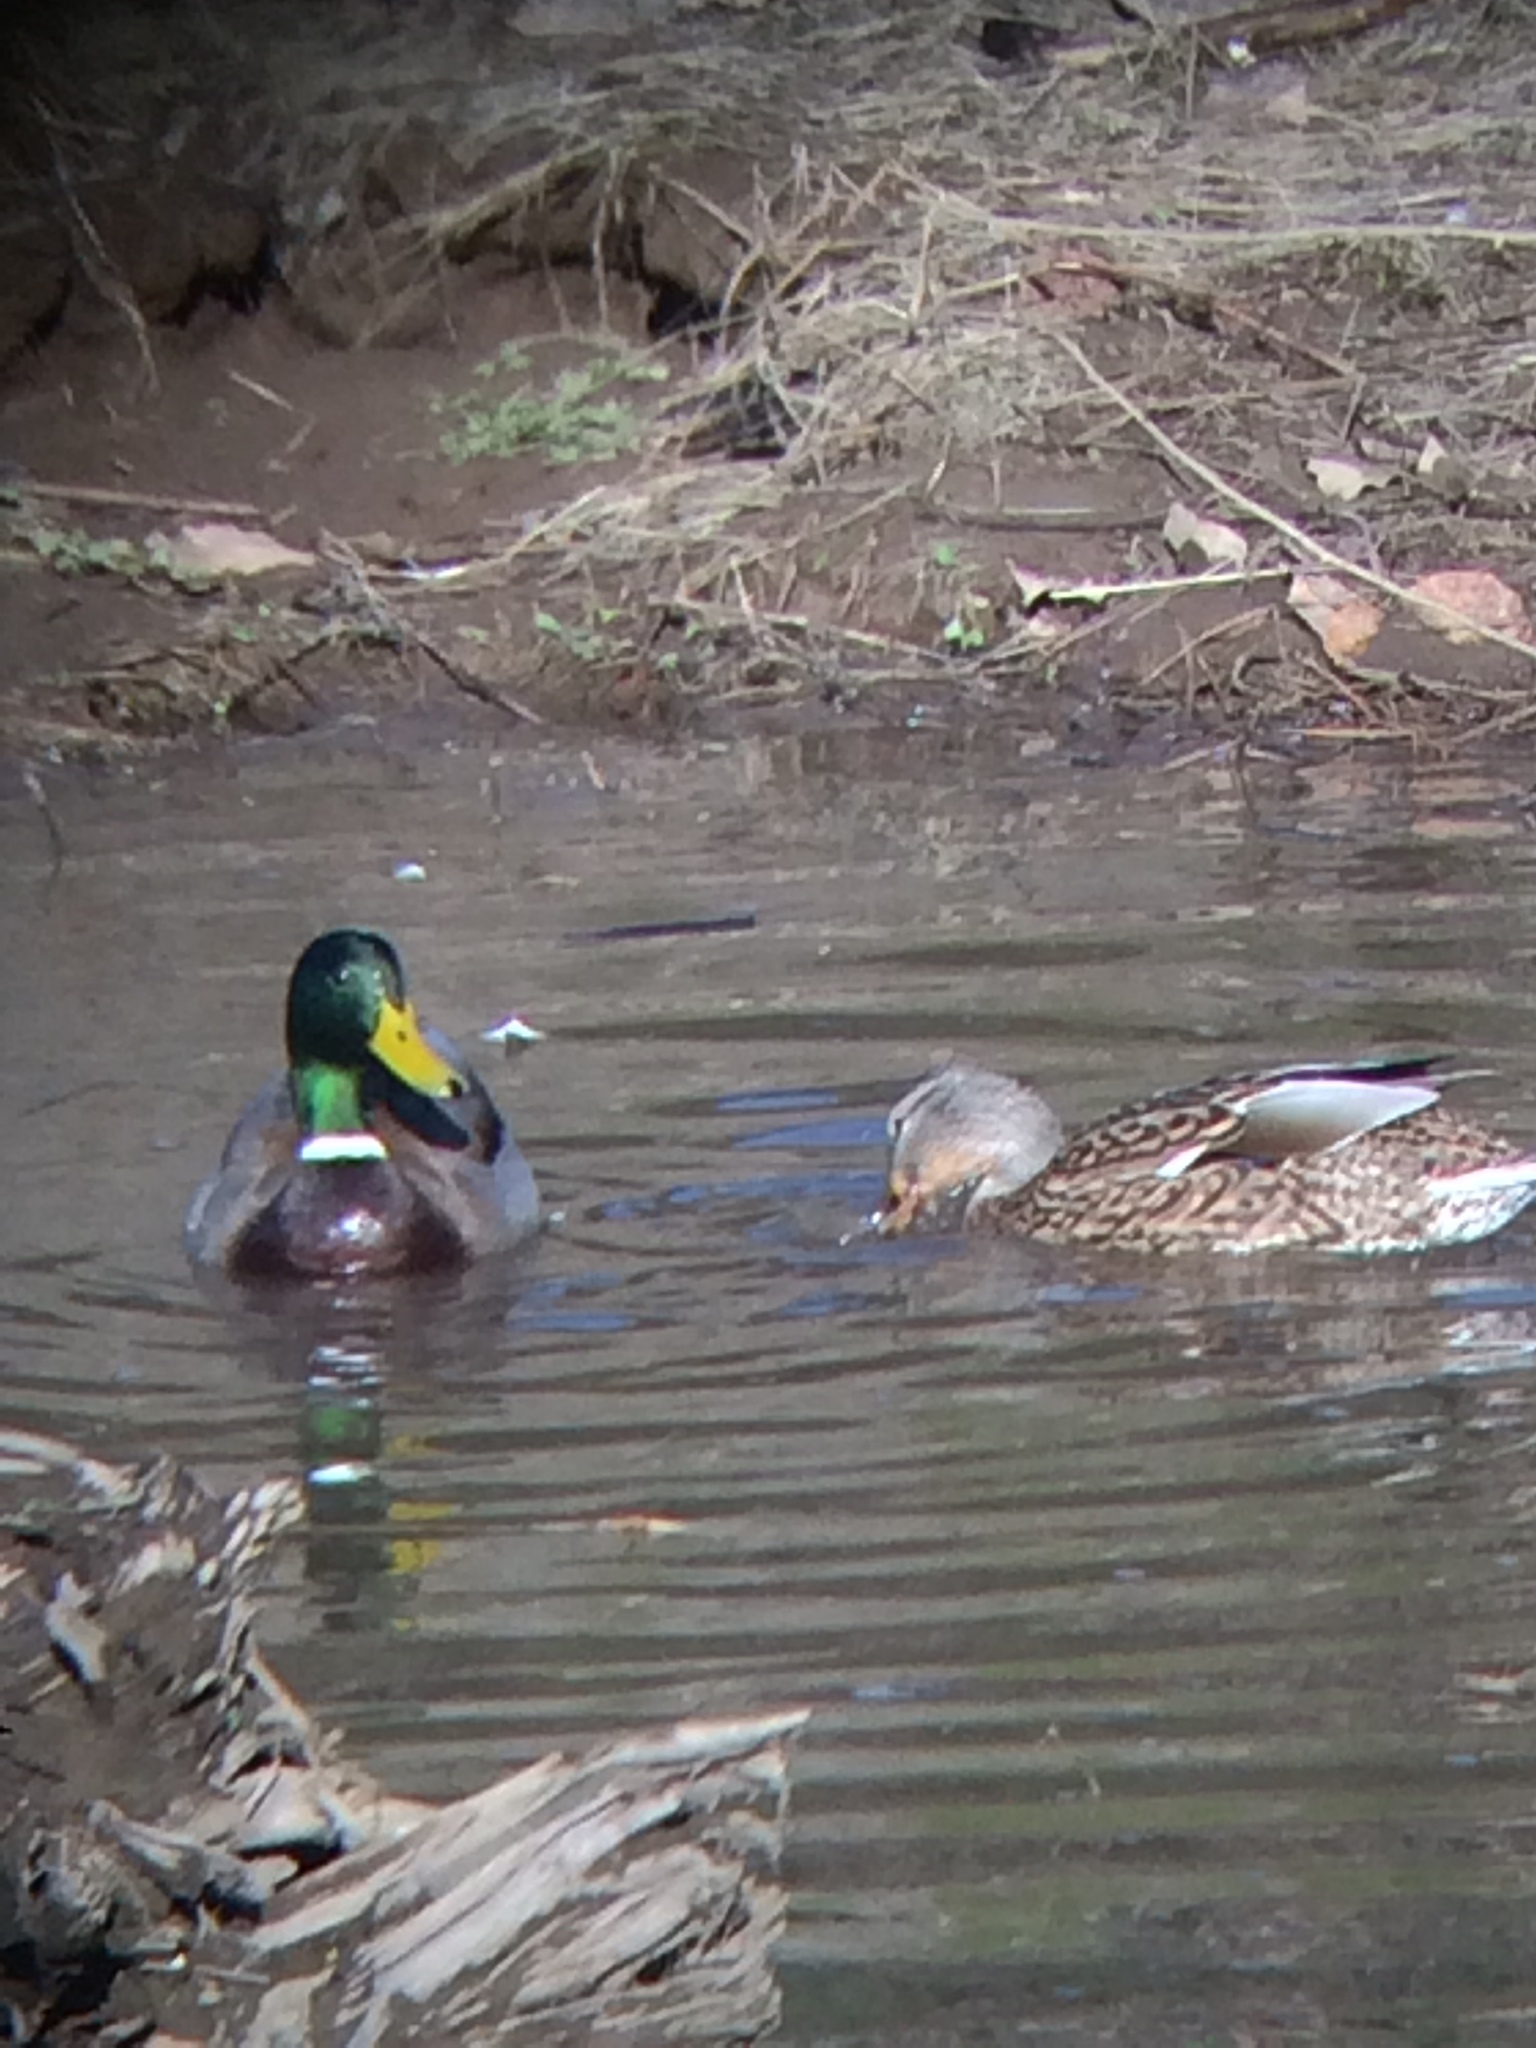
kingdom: Animalia
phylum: Chordata
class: Aves
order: Anseriformes
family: Anatidae
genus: Anas
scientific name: Anas platyrhynchos
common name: Mallard
